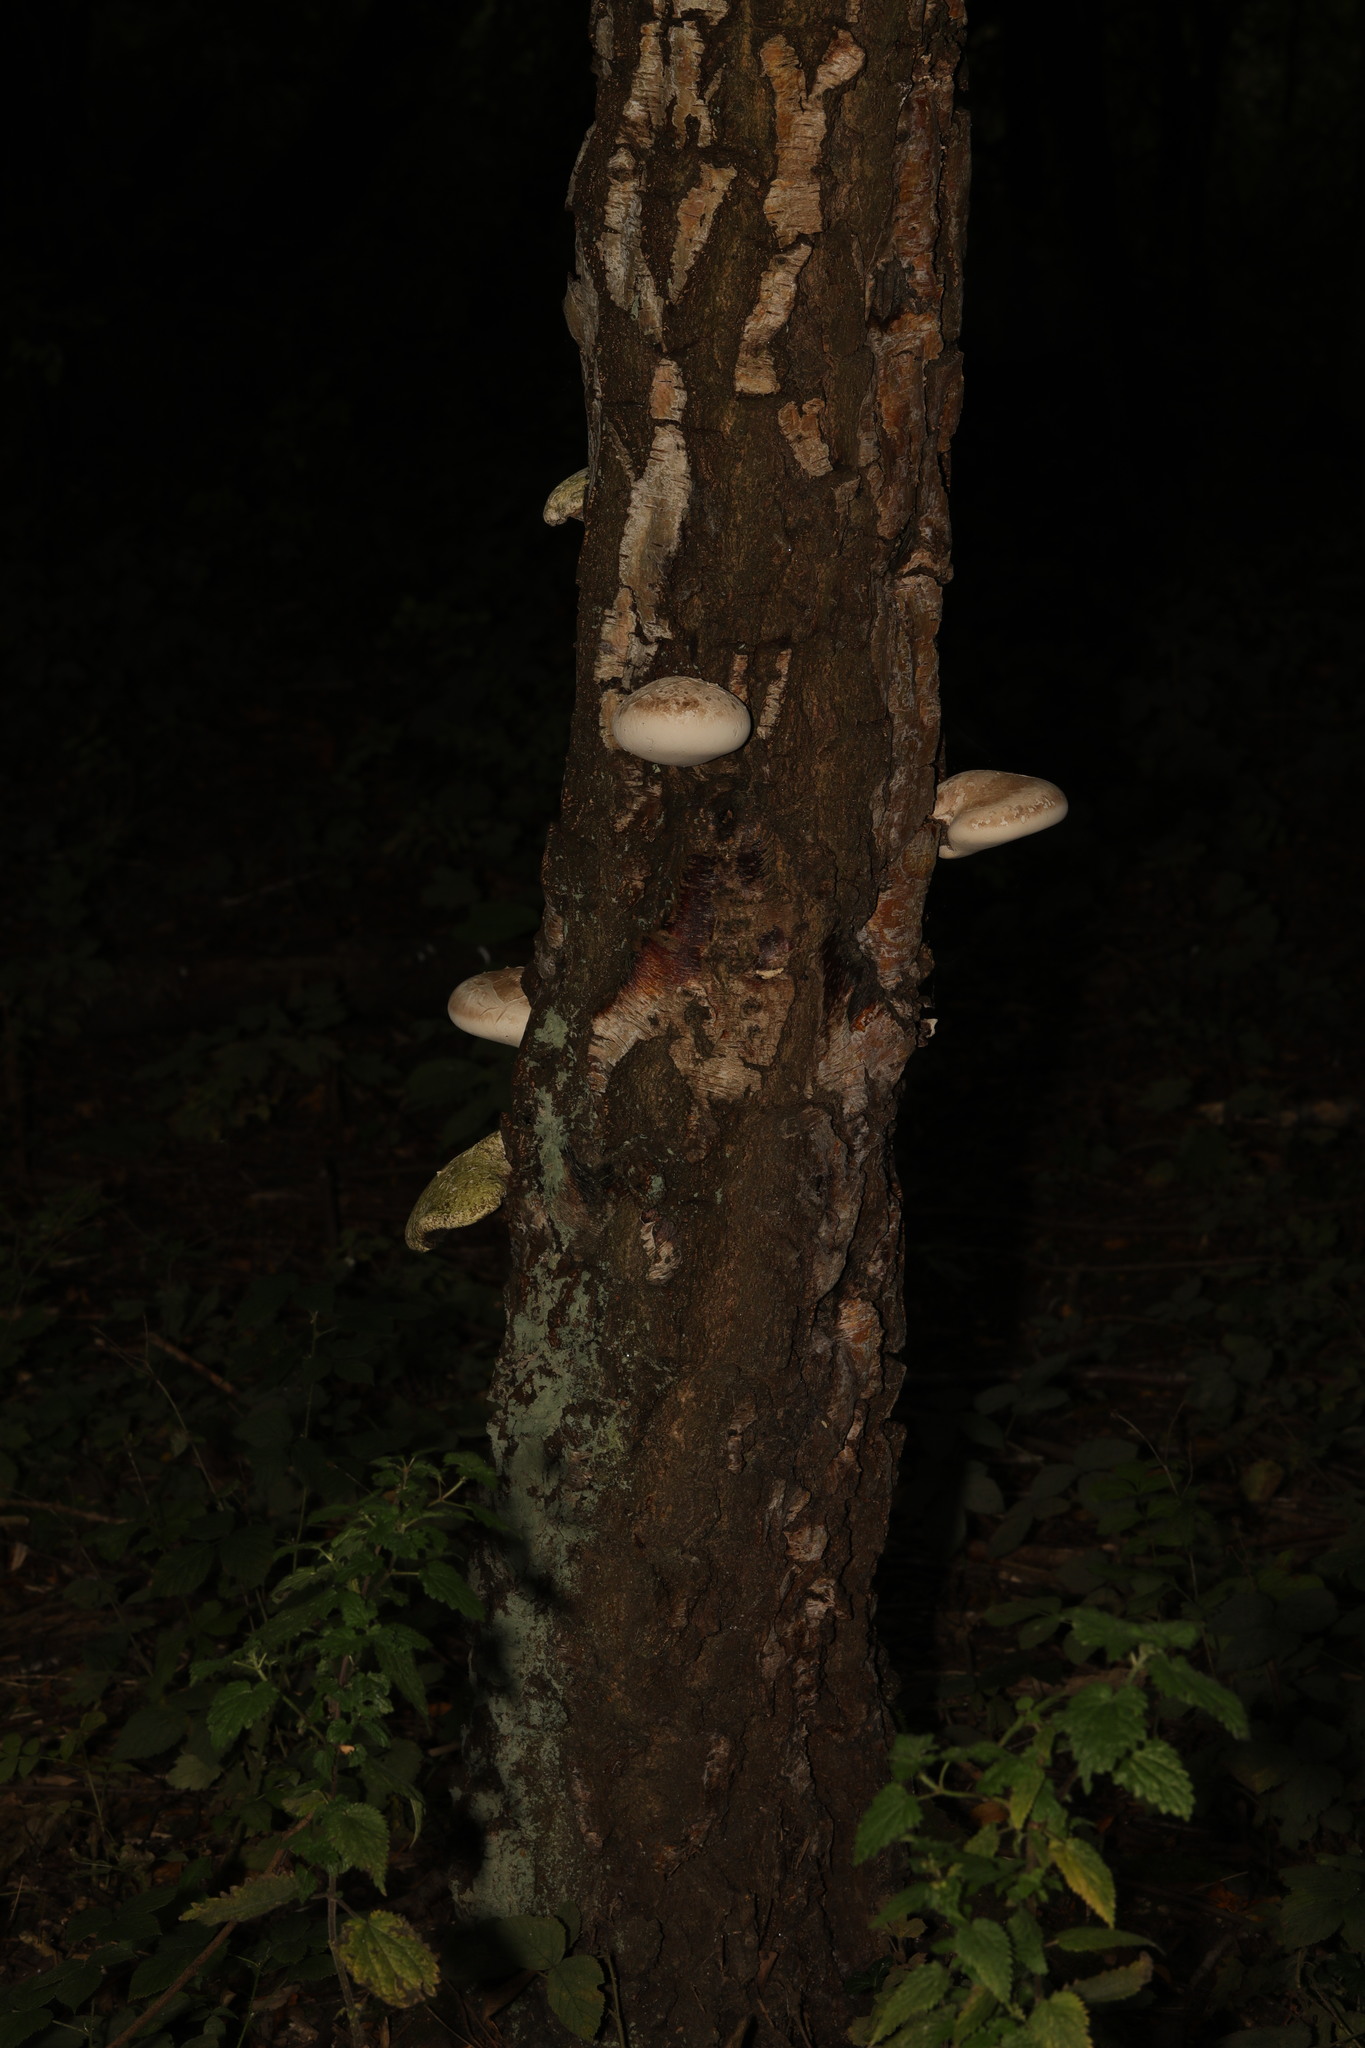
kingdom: Fungi
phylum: Basidiomycota
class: Agaricomycetes
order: Polyporales
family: Fomitopsidaceae
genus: Fomitopsis
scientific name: Fomitopsis betulina
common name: Birch polypore
